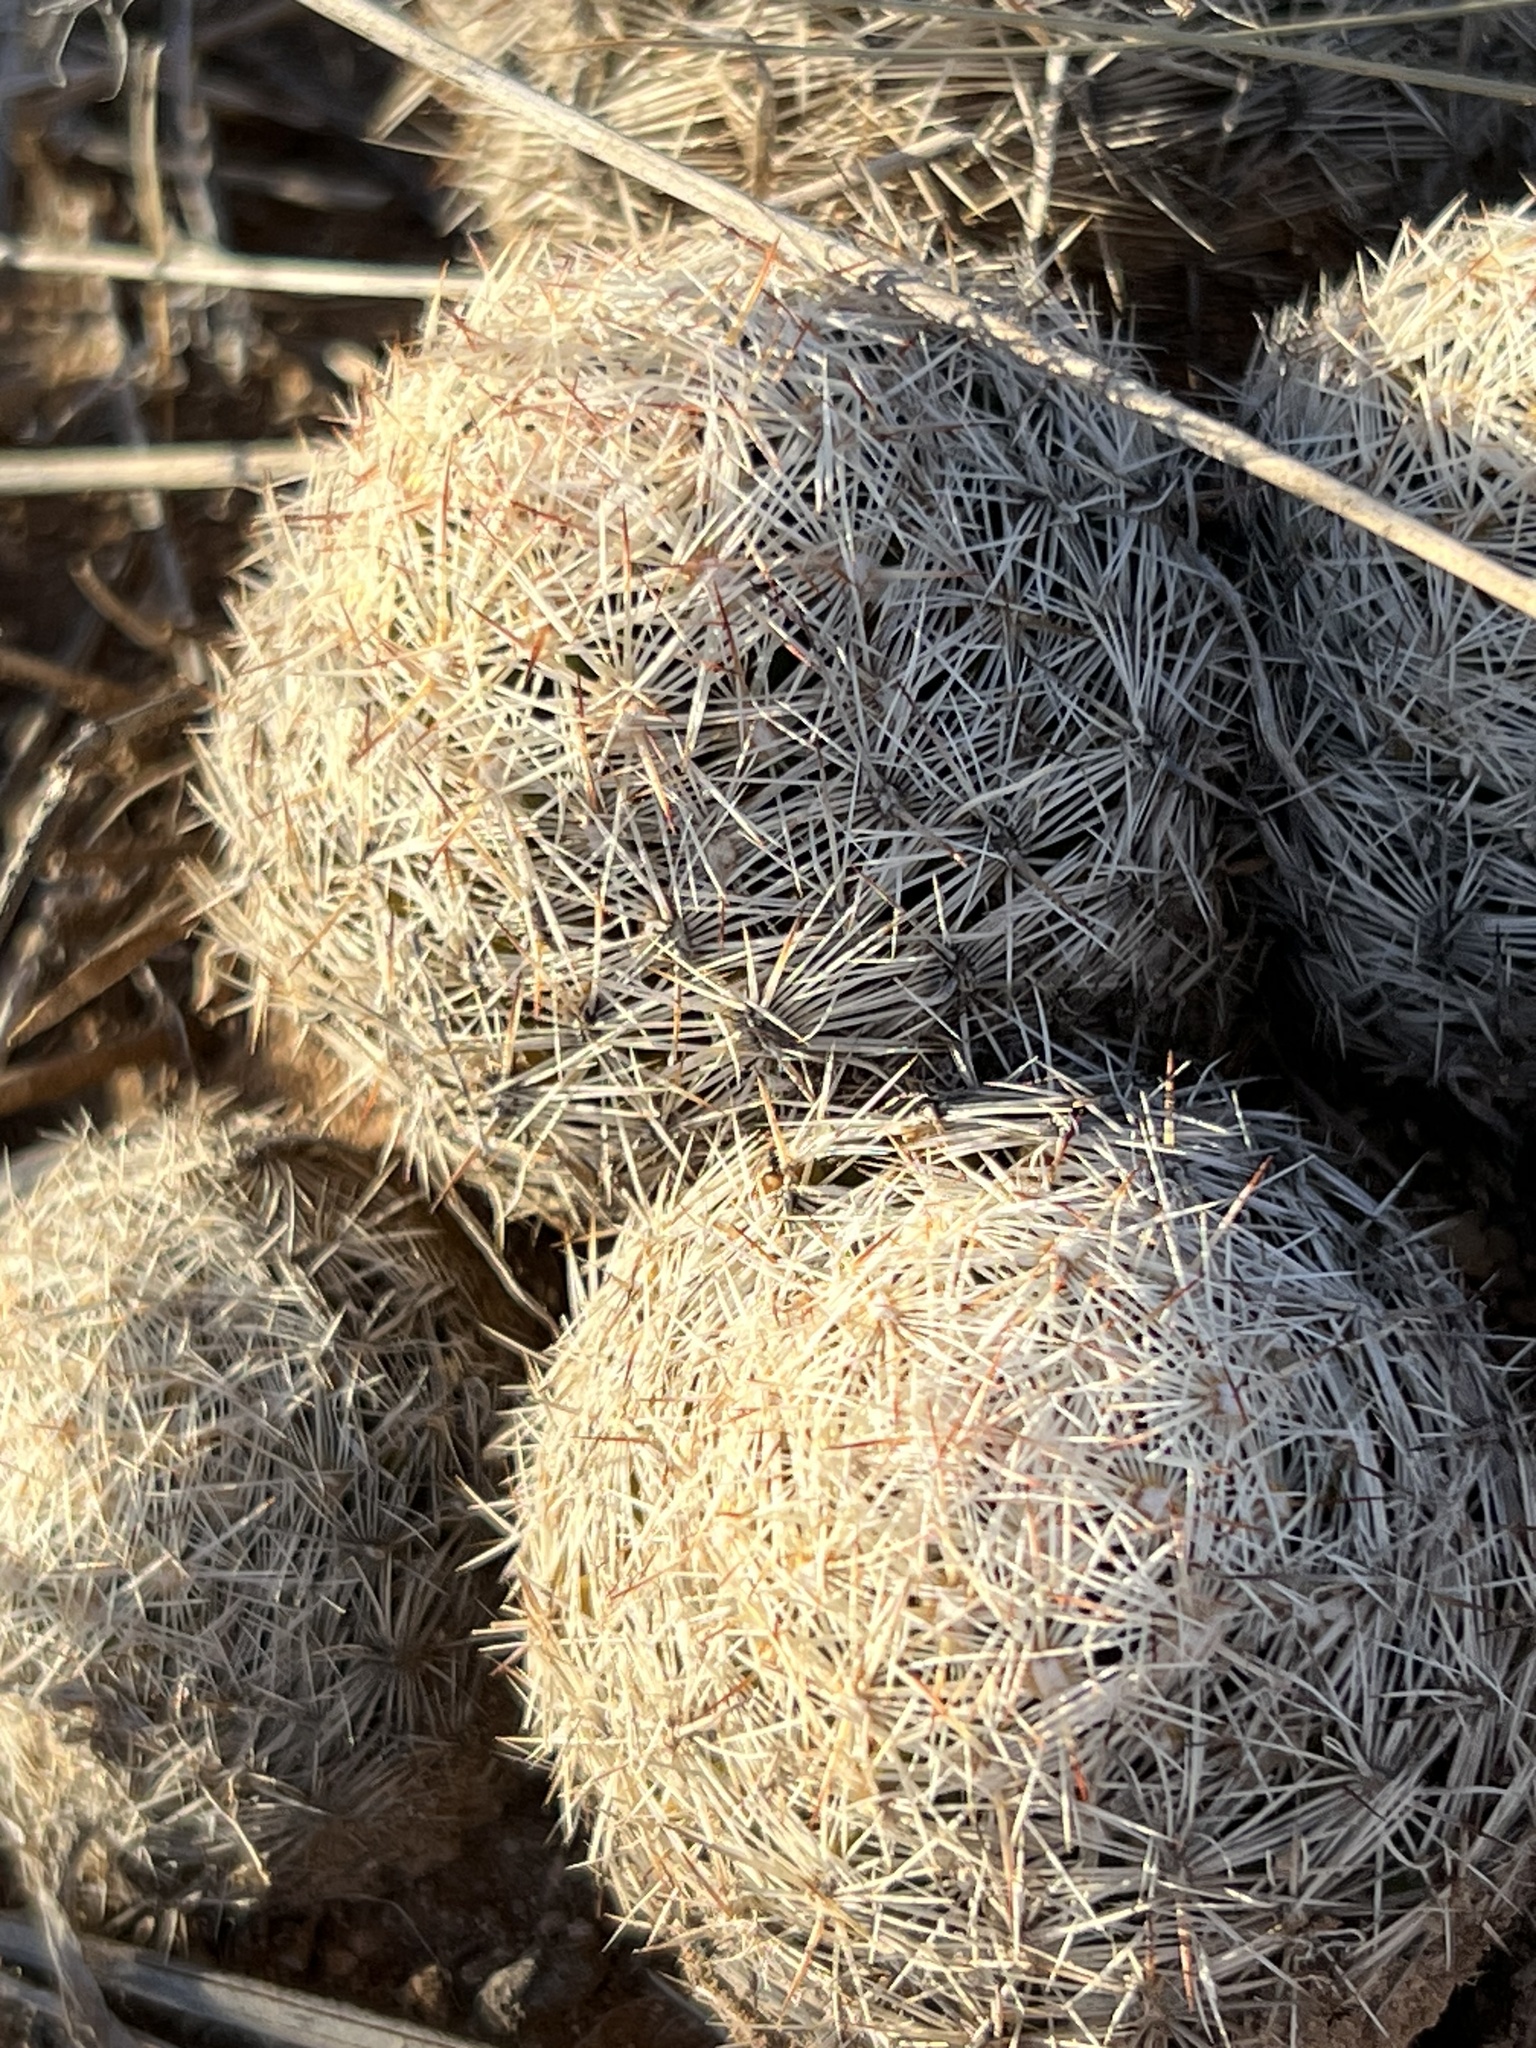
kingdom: Plantae
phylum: Tracheophyta
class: Magnoliopsida
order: Caryophyllales
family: Cactaceae
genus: Pelecyphora
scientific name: Pelecyphora vivipara
